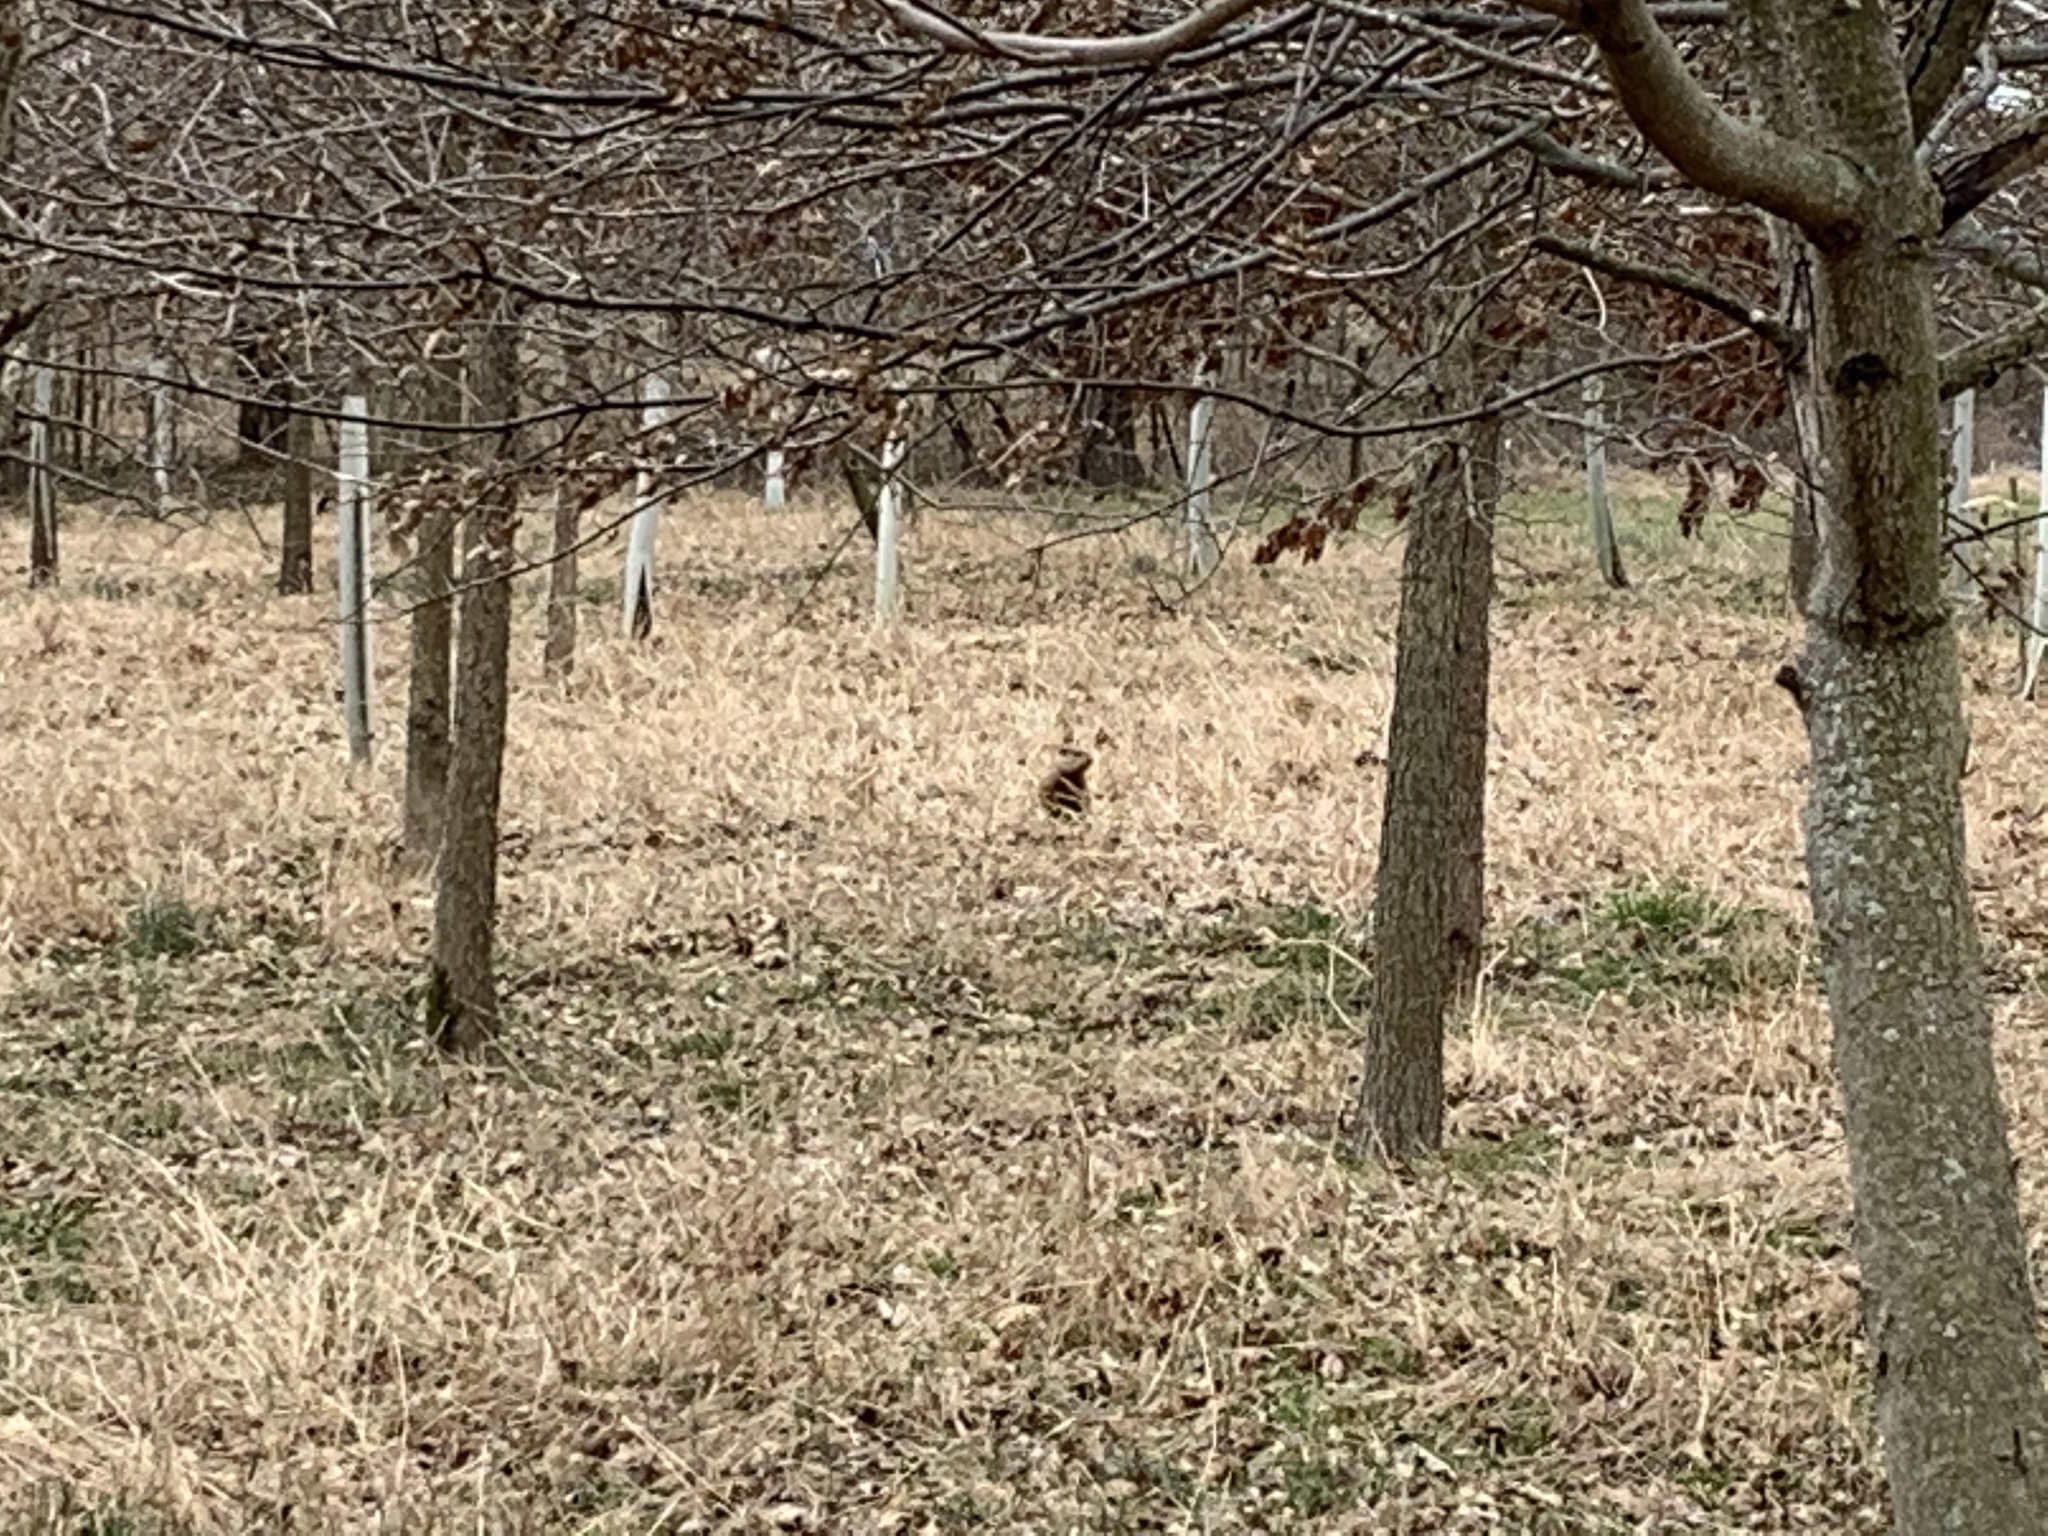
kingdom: Animalia
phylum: Chordata
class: Mammalia
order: Rodentia
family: Sciuridae
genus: Marmota
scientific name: Marmota monax
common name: Groundhog
